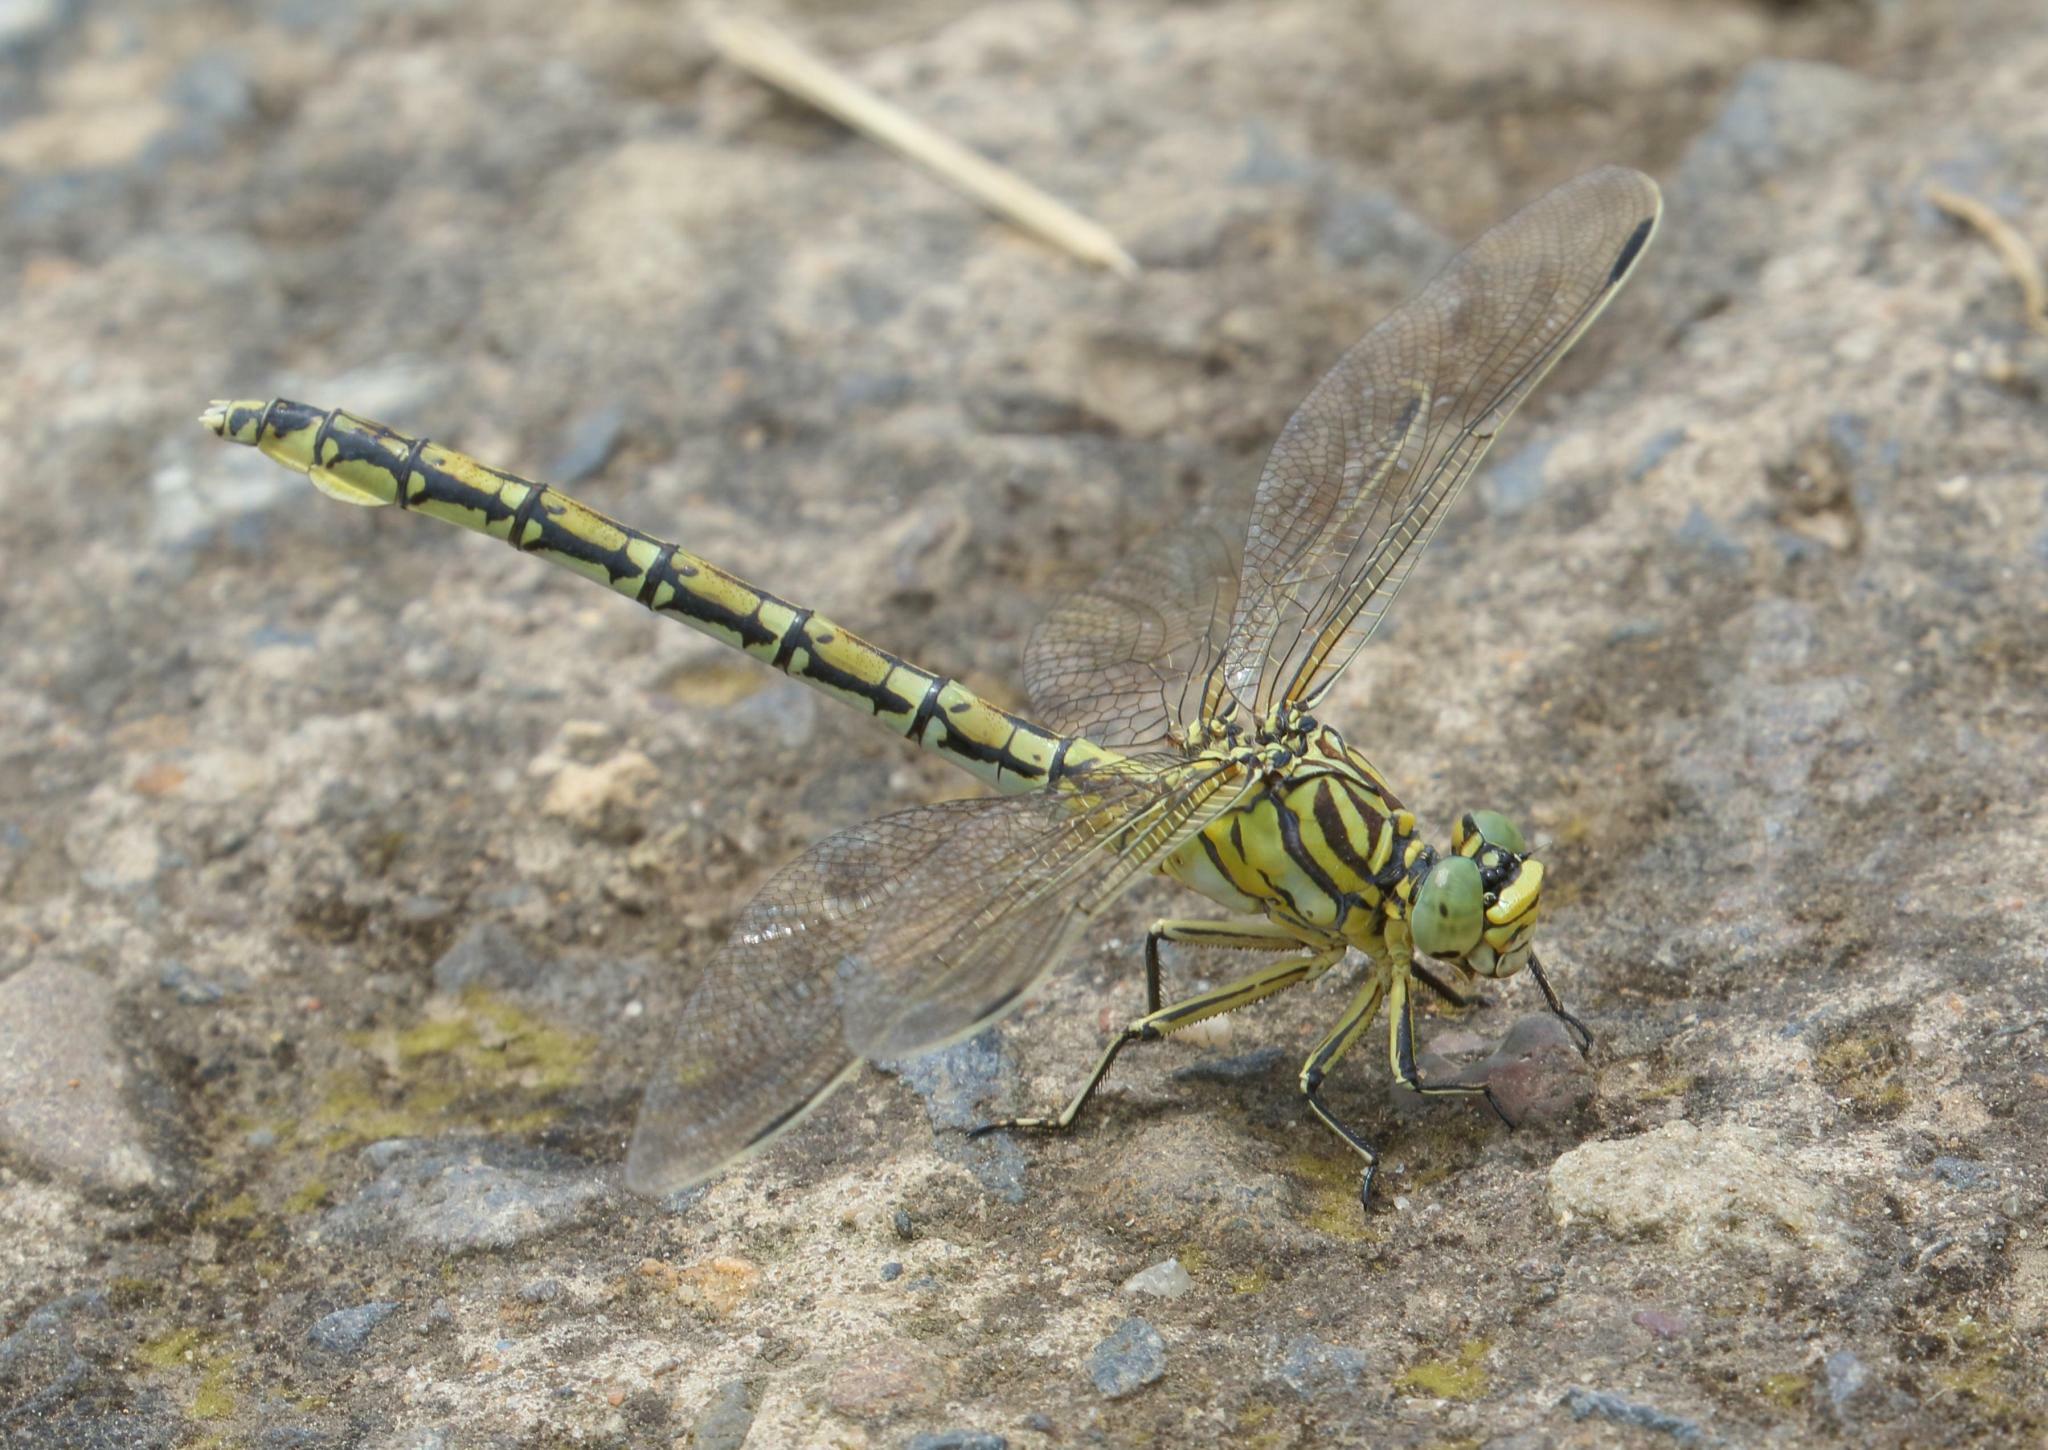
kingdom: Animalia
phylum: Arthropoda
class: Insecta
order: Odonata
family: Gomphidae
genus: Ceratogomphus
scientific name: Ceratogomphus pictus
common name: Common thorntail
